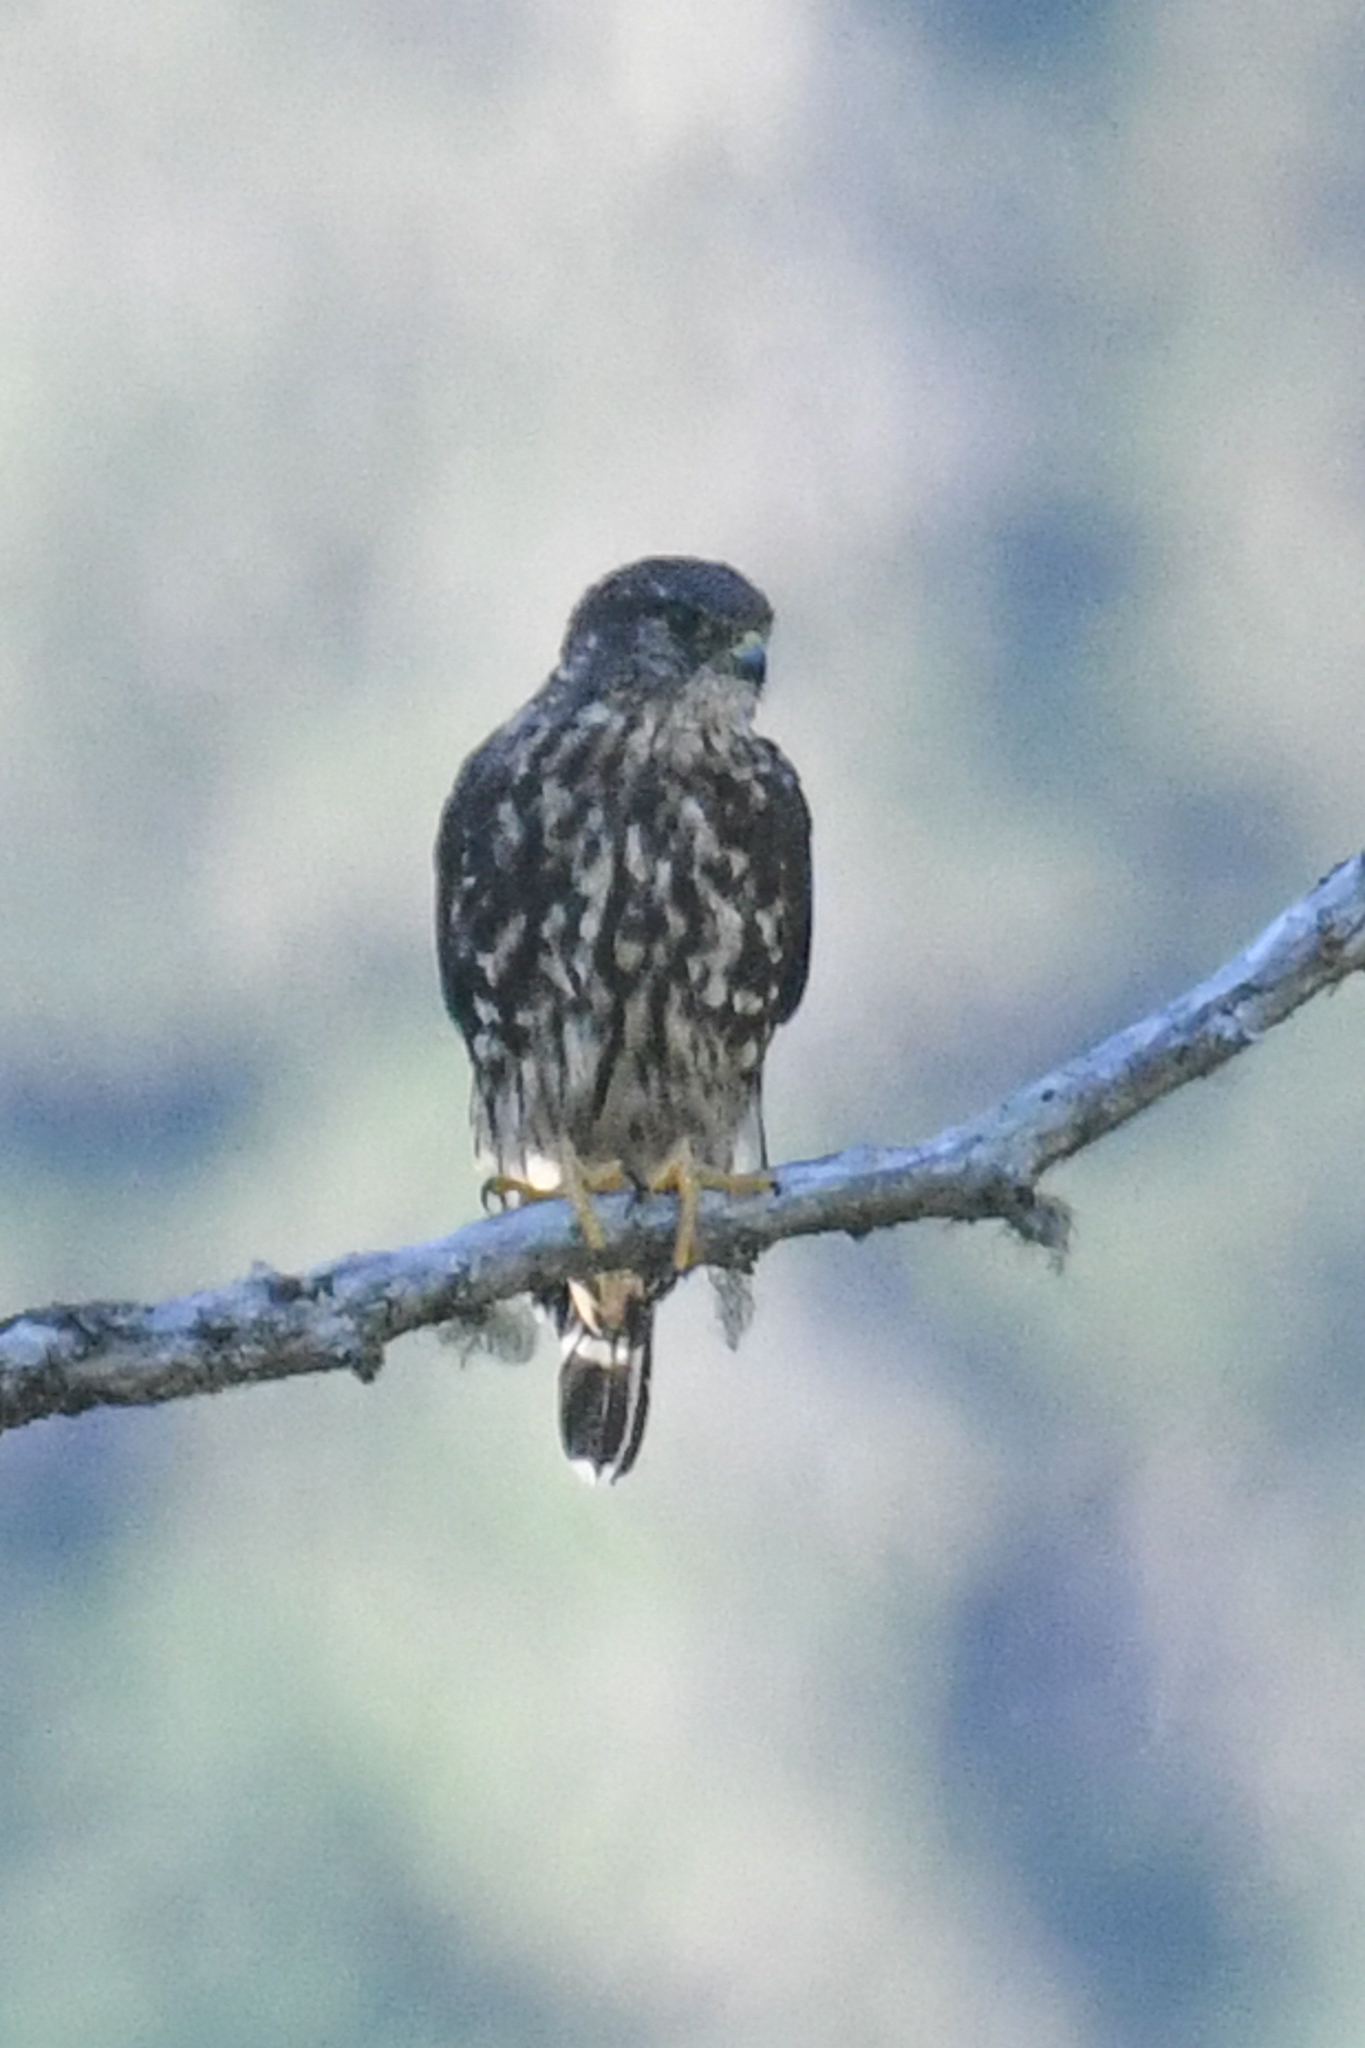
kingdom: Animalia
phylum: Chordata
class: Aves
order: Falconiformes
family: Falconidae
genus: Falco
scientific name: Falco columbarius
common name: Merlin
